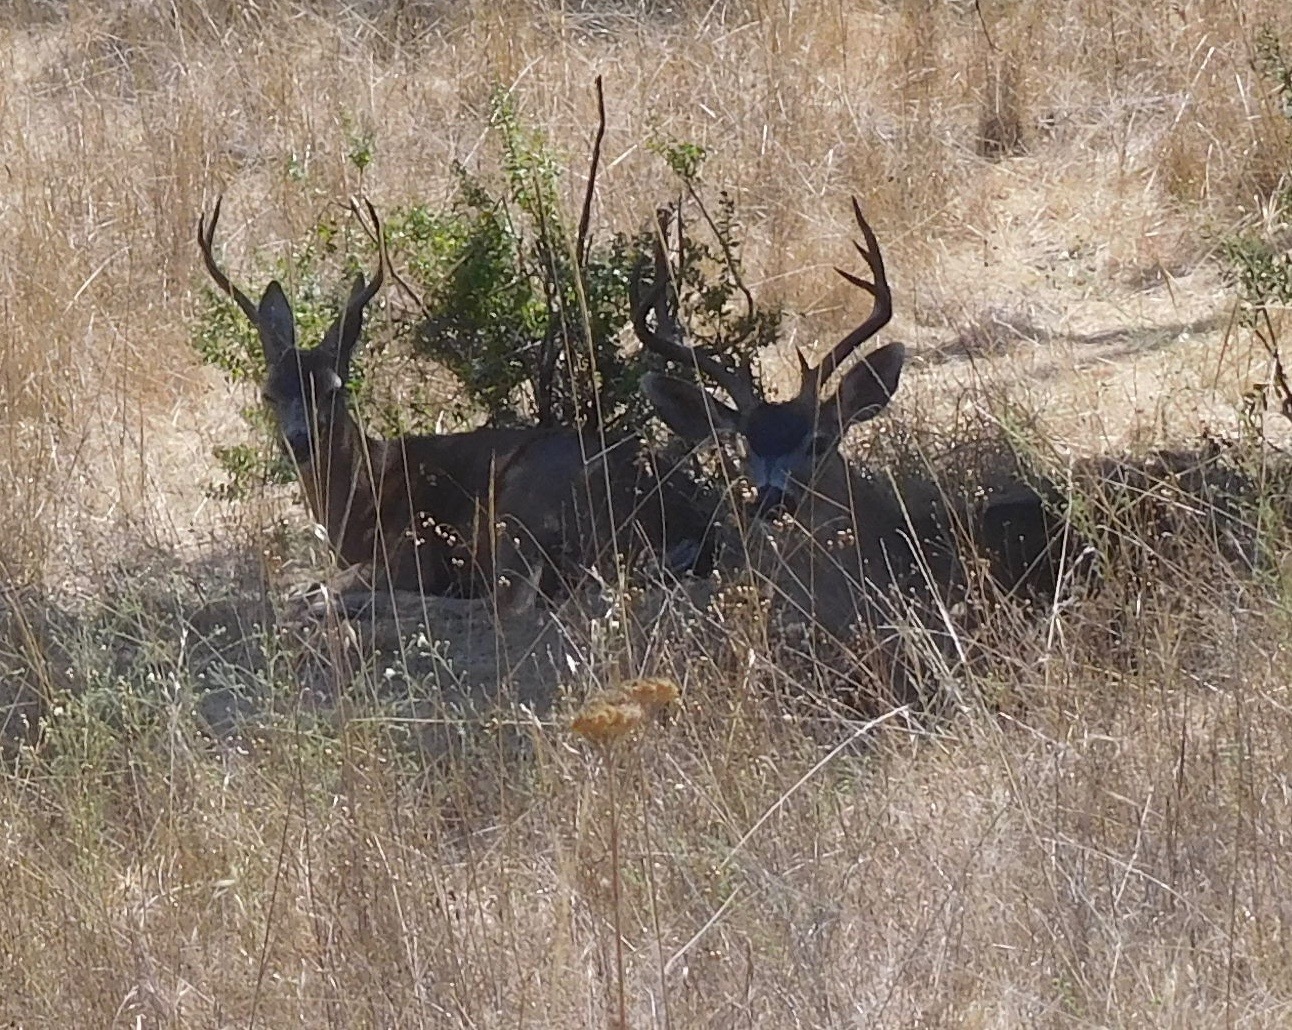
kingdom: Animalia
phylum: Chordata
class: Mammalia
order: Artiodactyla
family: Cervidae
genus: Odocoileus
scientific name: Odocoileus hemionus
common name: Mule deer
